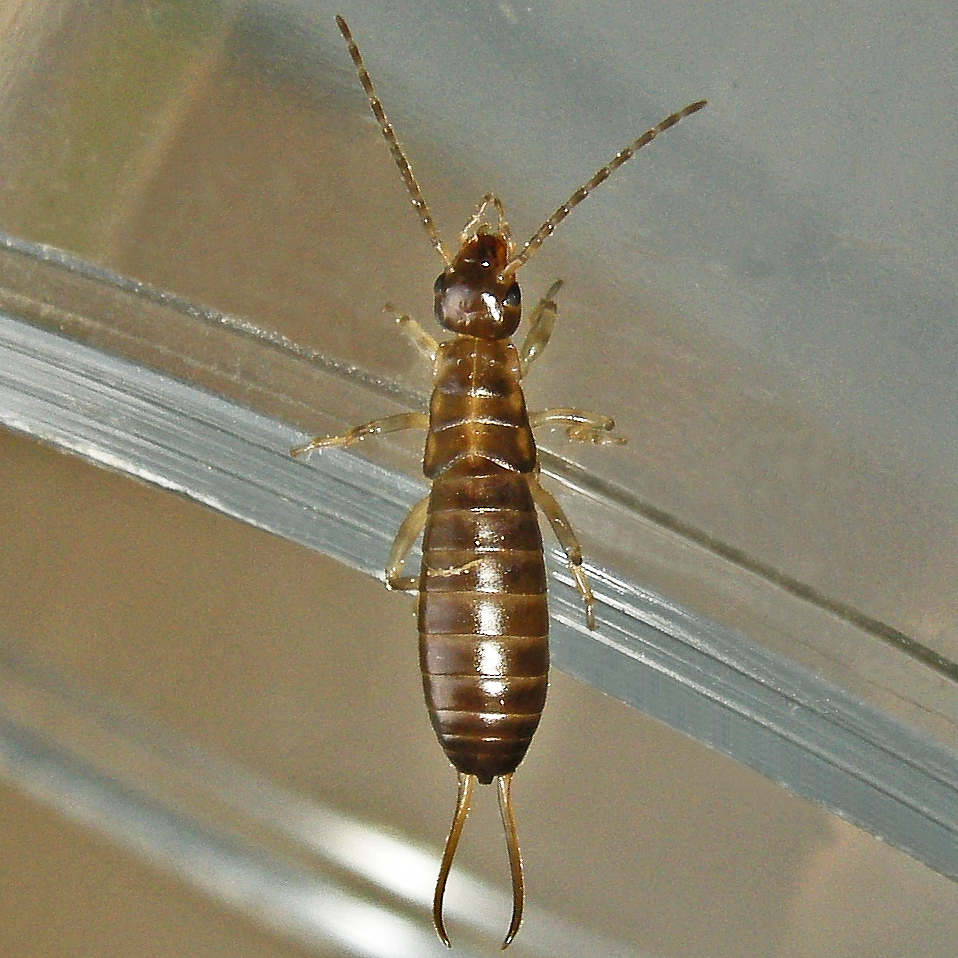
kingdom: Animalia
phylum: Arthropoda
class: Insecta
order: Dermaptera
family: Forficulidae
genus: Forficula
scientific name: Forficula
